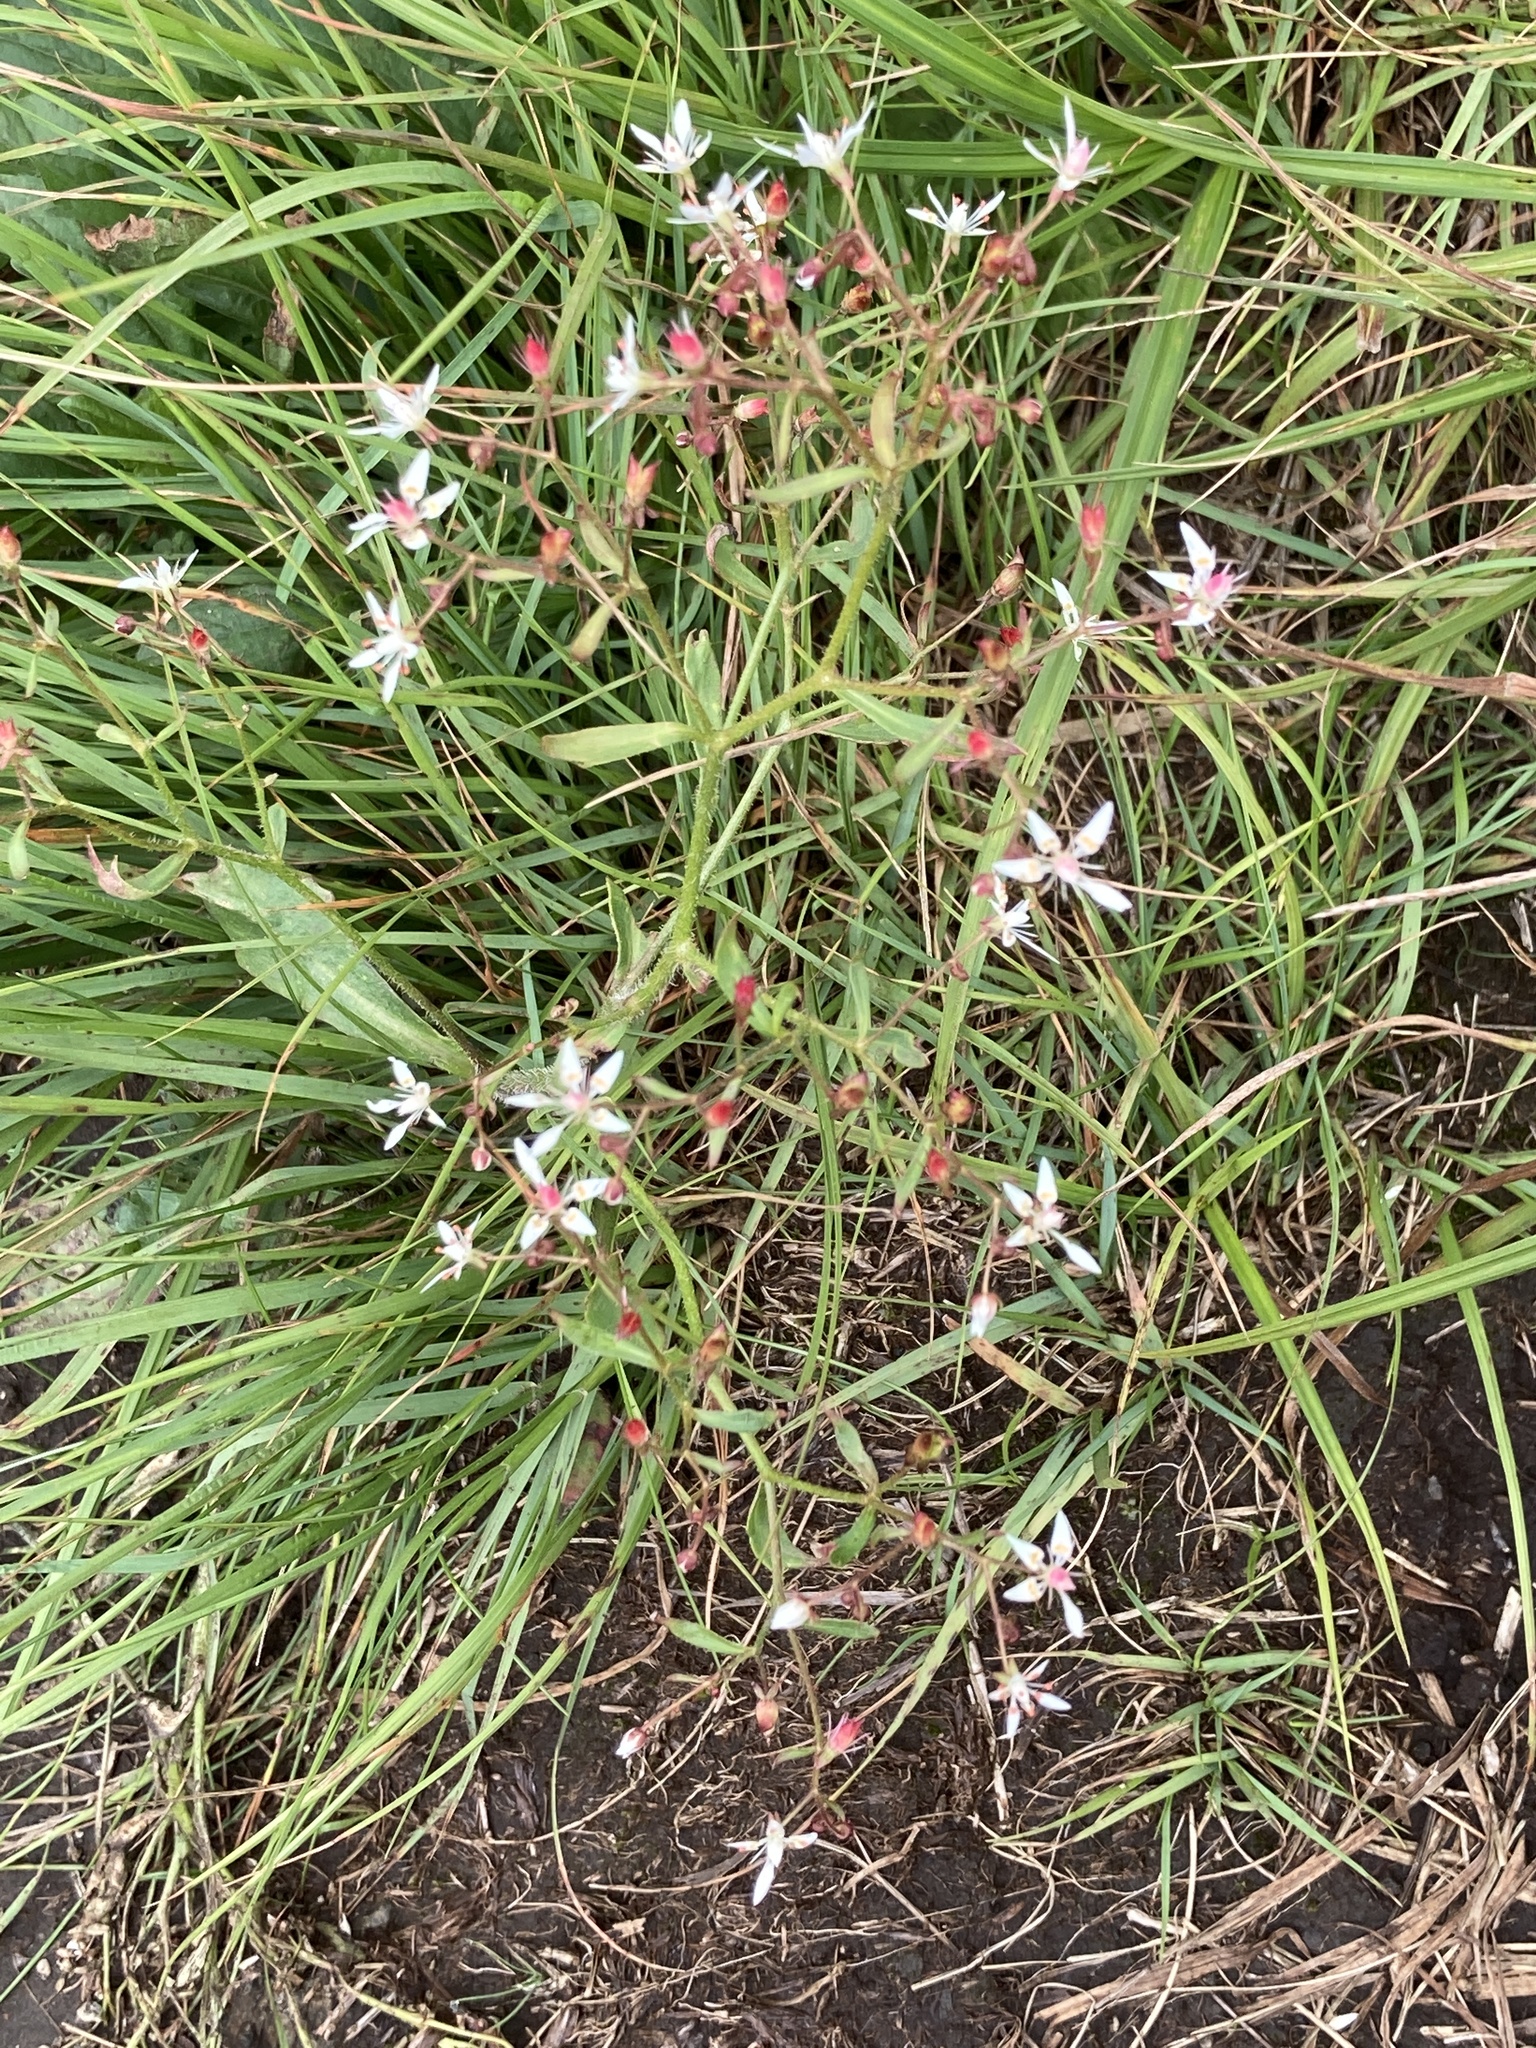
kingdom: Plantae
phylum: Tracheophyta
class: Magnoliopsida
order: Saxifragales
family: Saxifragaceae
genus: Micranthes
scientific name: Micranthes petiolaris
